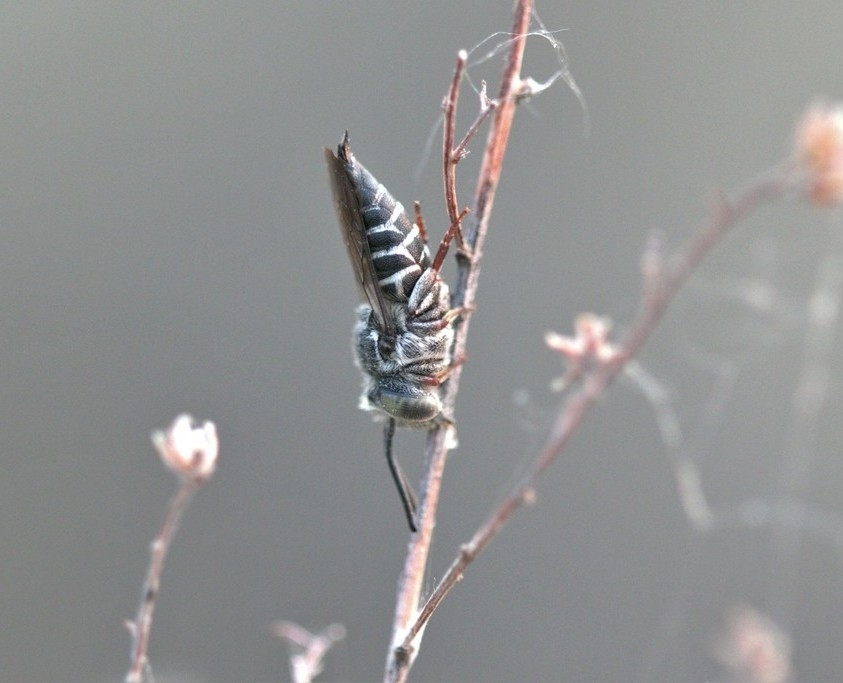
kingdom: Animalia
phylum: Arthropoda
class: Insecta
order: Hymenoptera
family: Megachilidae
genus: Coelioxys
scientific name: Coelioxys rufitarsis
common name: Red-footed sharptail
